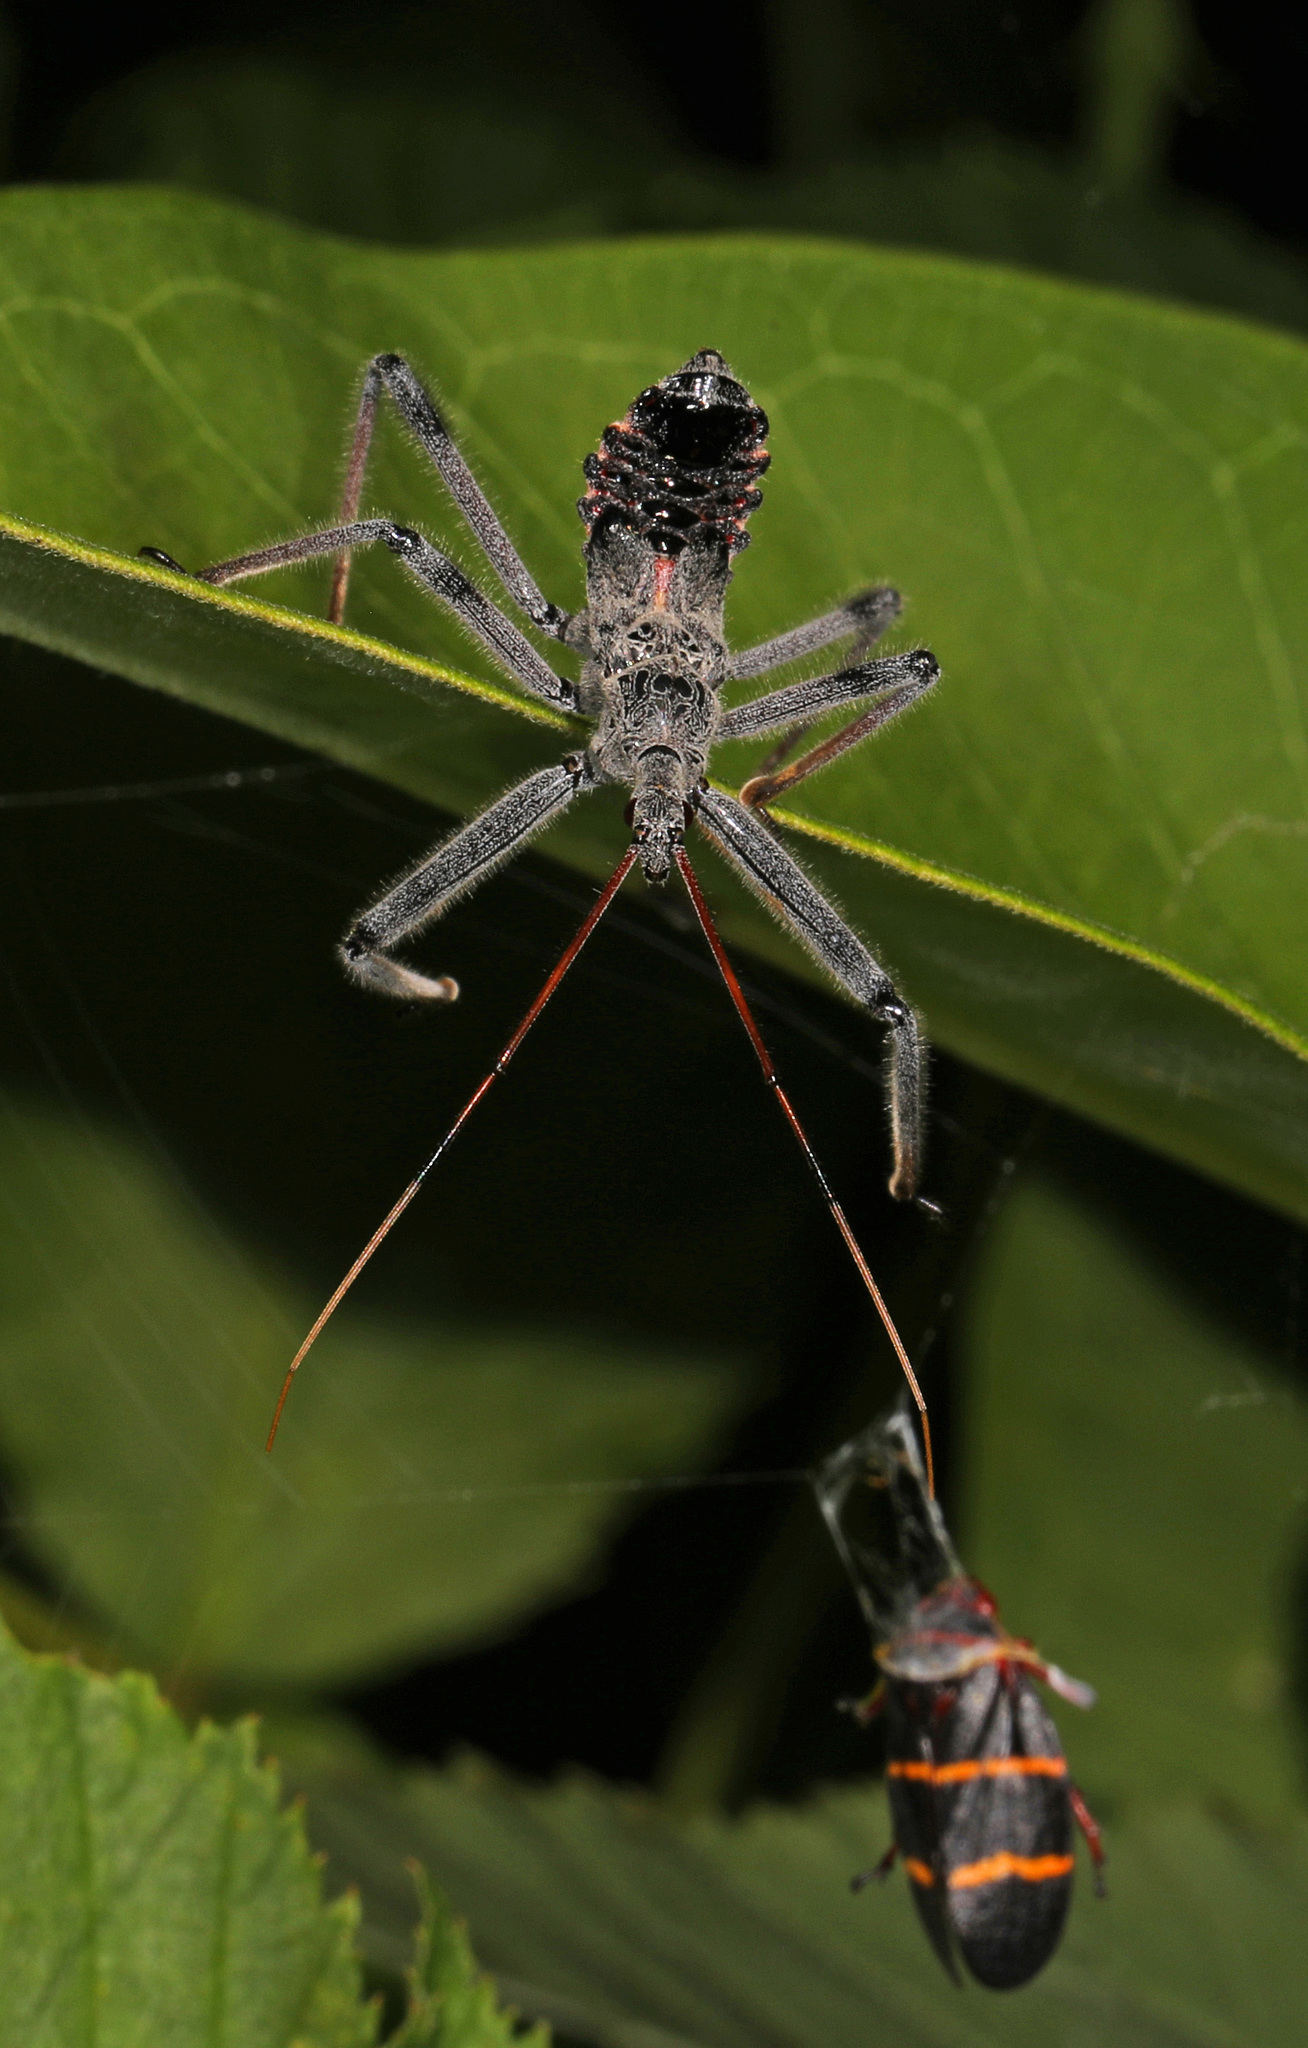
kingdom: Animalia
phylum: Arthropoda
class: Insecta
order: Hemiptera
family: Reduviidae
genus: Arilus
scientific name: Arilus cristatus
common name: North american wheel bug
